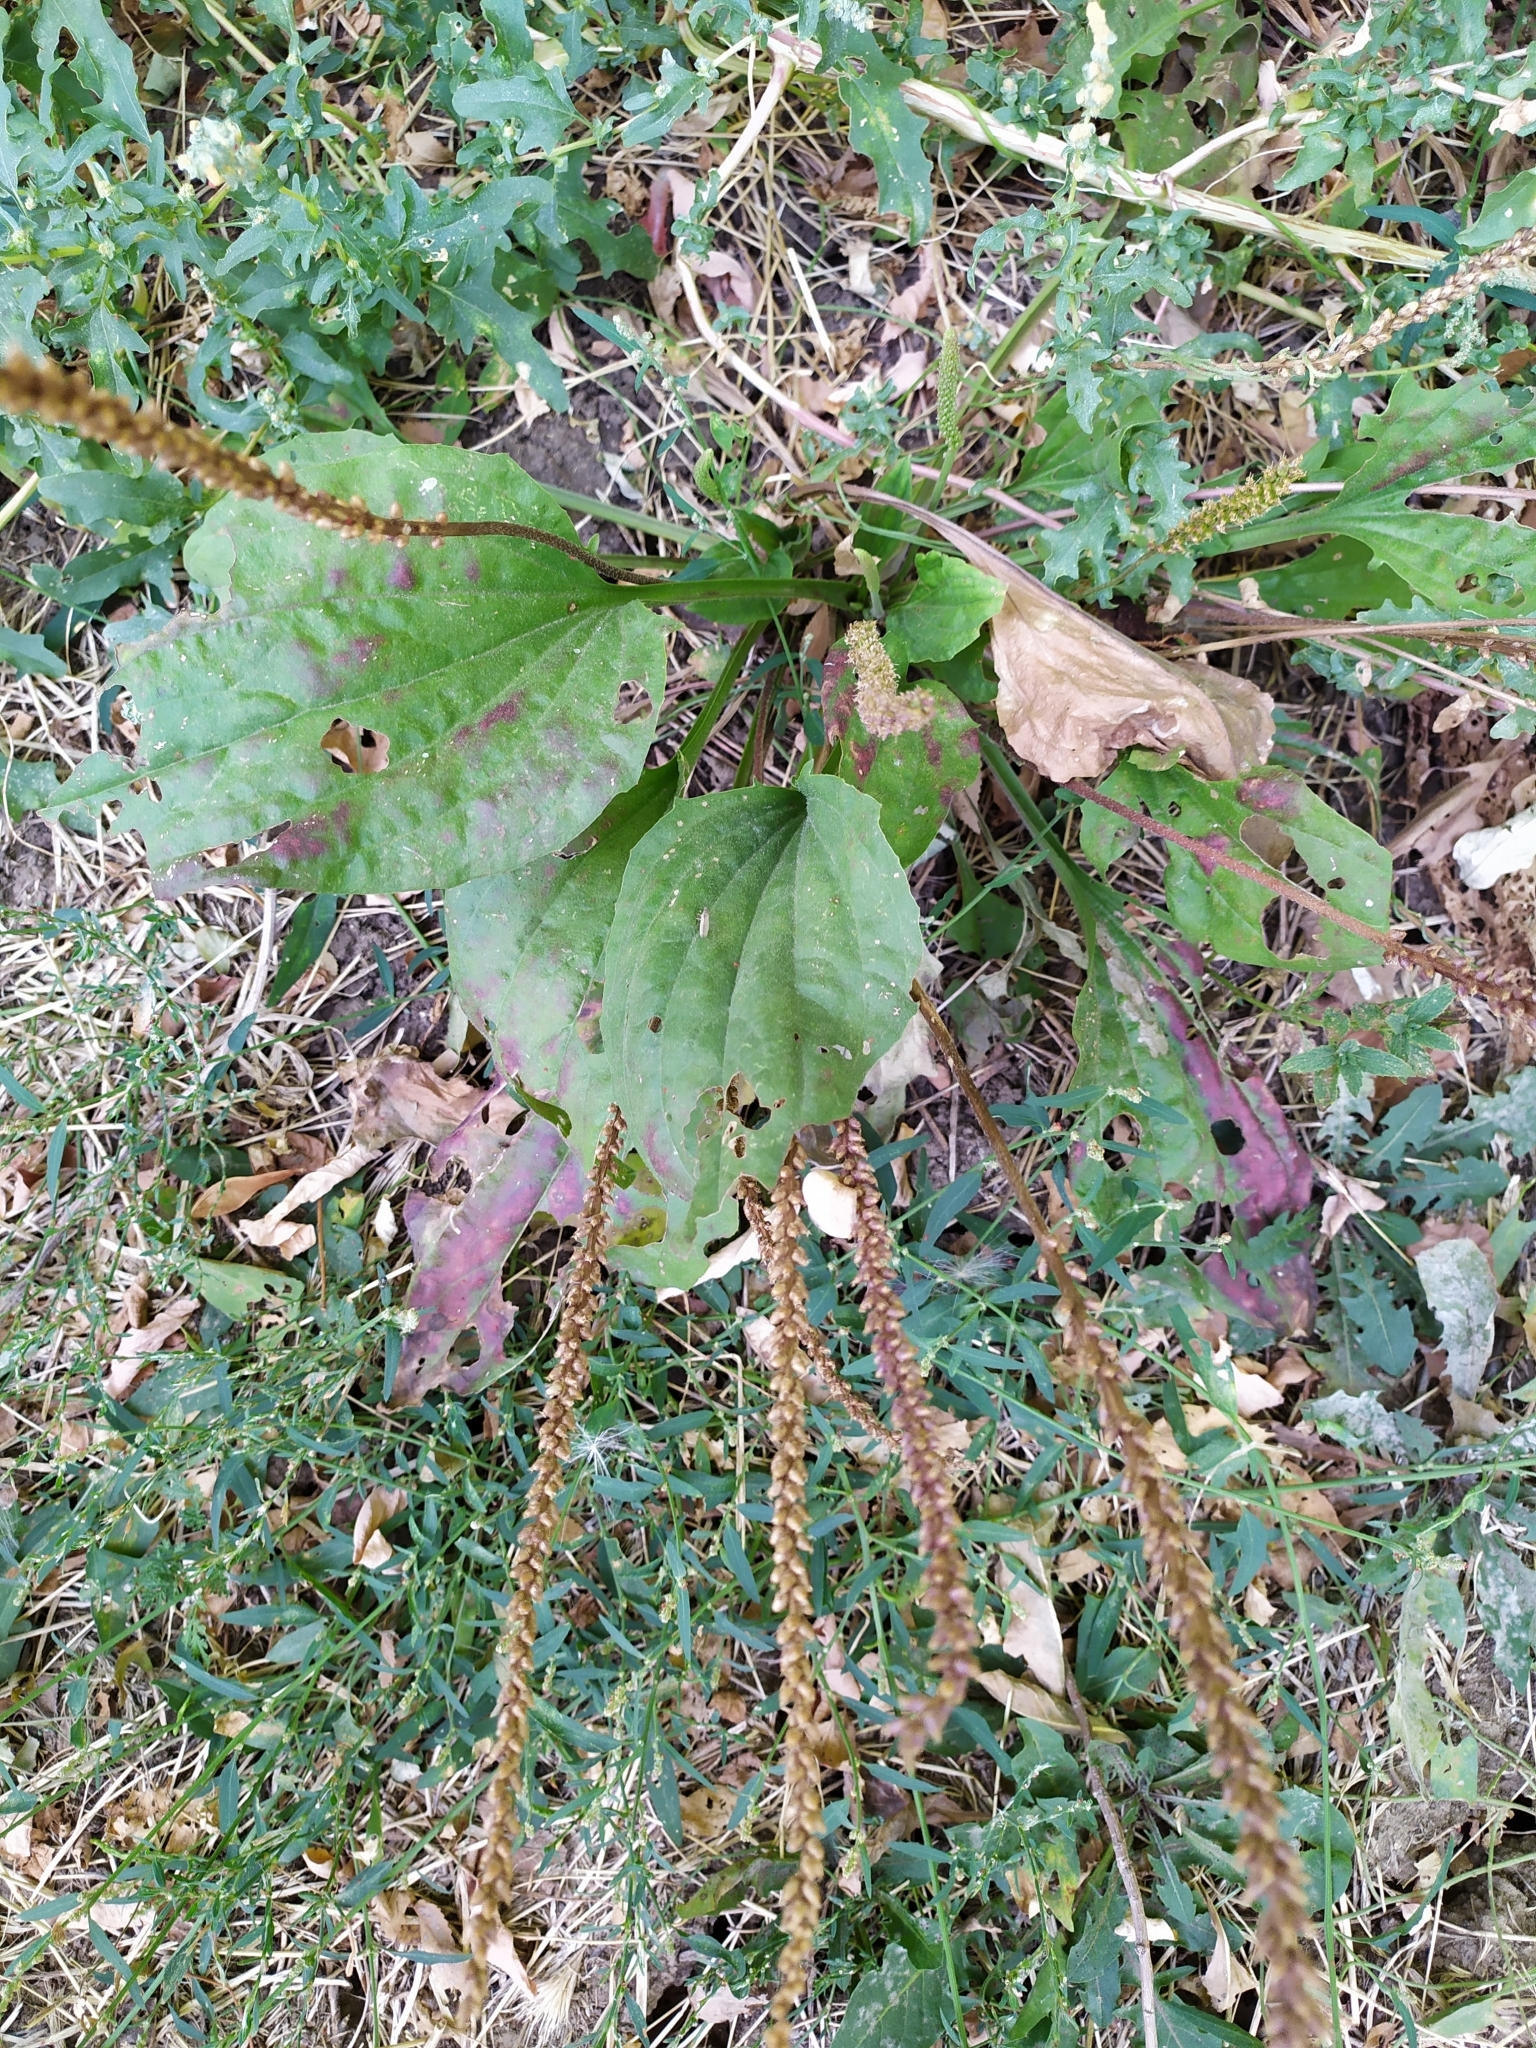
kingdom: Plantae
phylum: Tracheophyta
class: Magnoliopsida
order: Lamiales
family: Plantaginaceae
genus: Plantago
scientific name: Plantago major
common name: Common plantain
